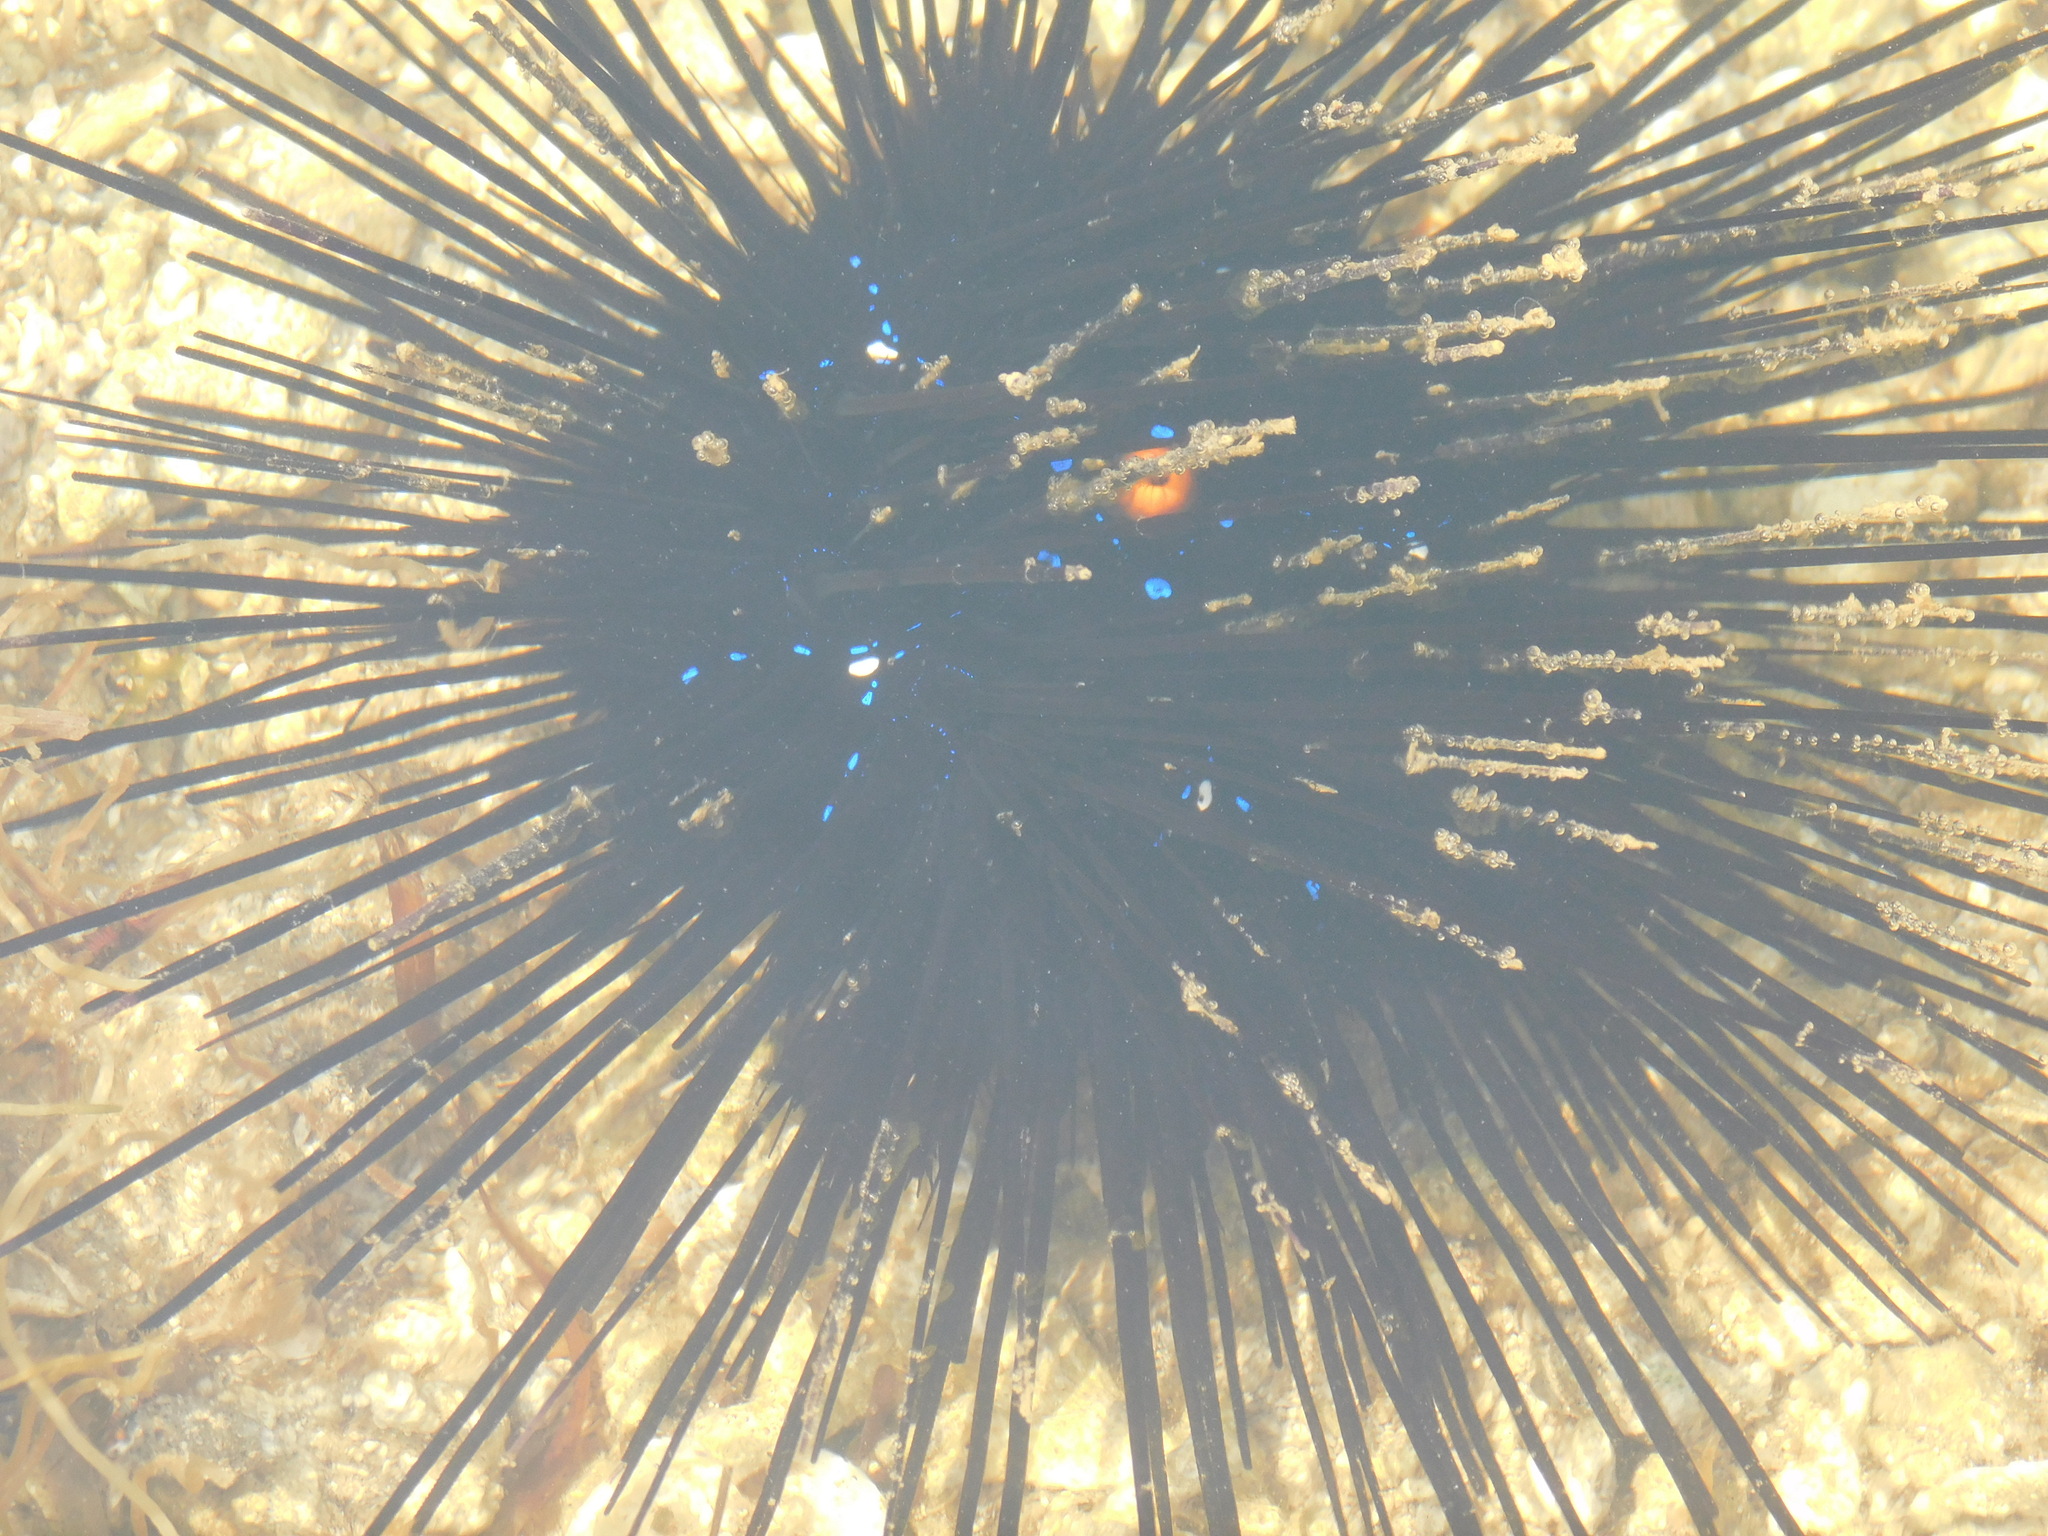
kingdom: Animalia
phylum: Echinodermata
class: Echinoidea
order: Diadematoida
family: Diadematidae
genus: Diadema
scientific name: Diadema setosum
